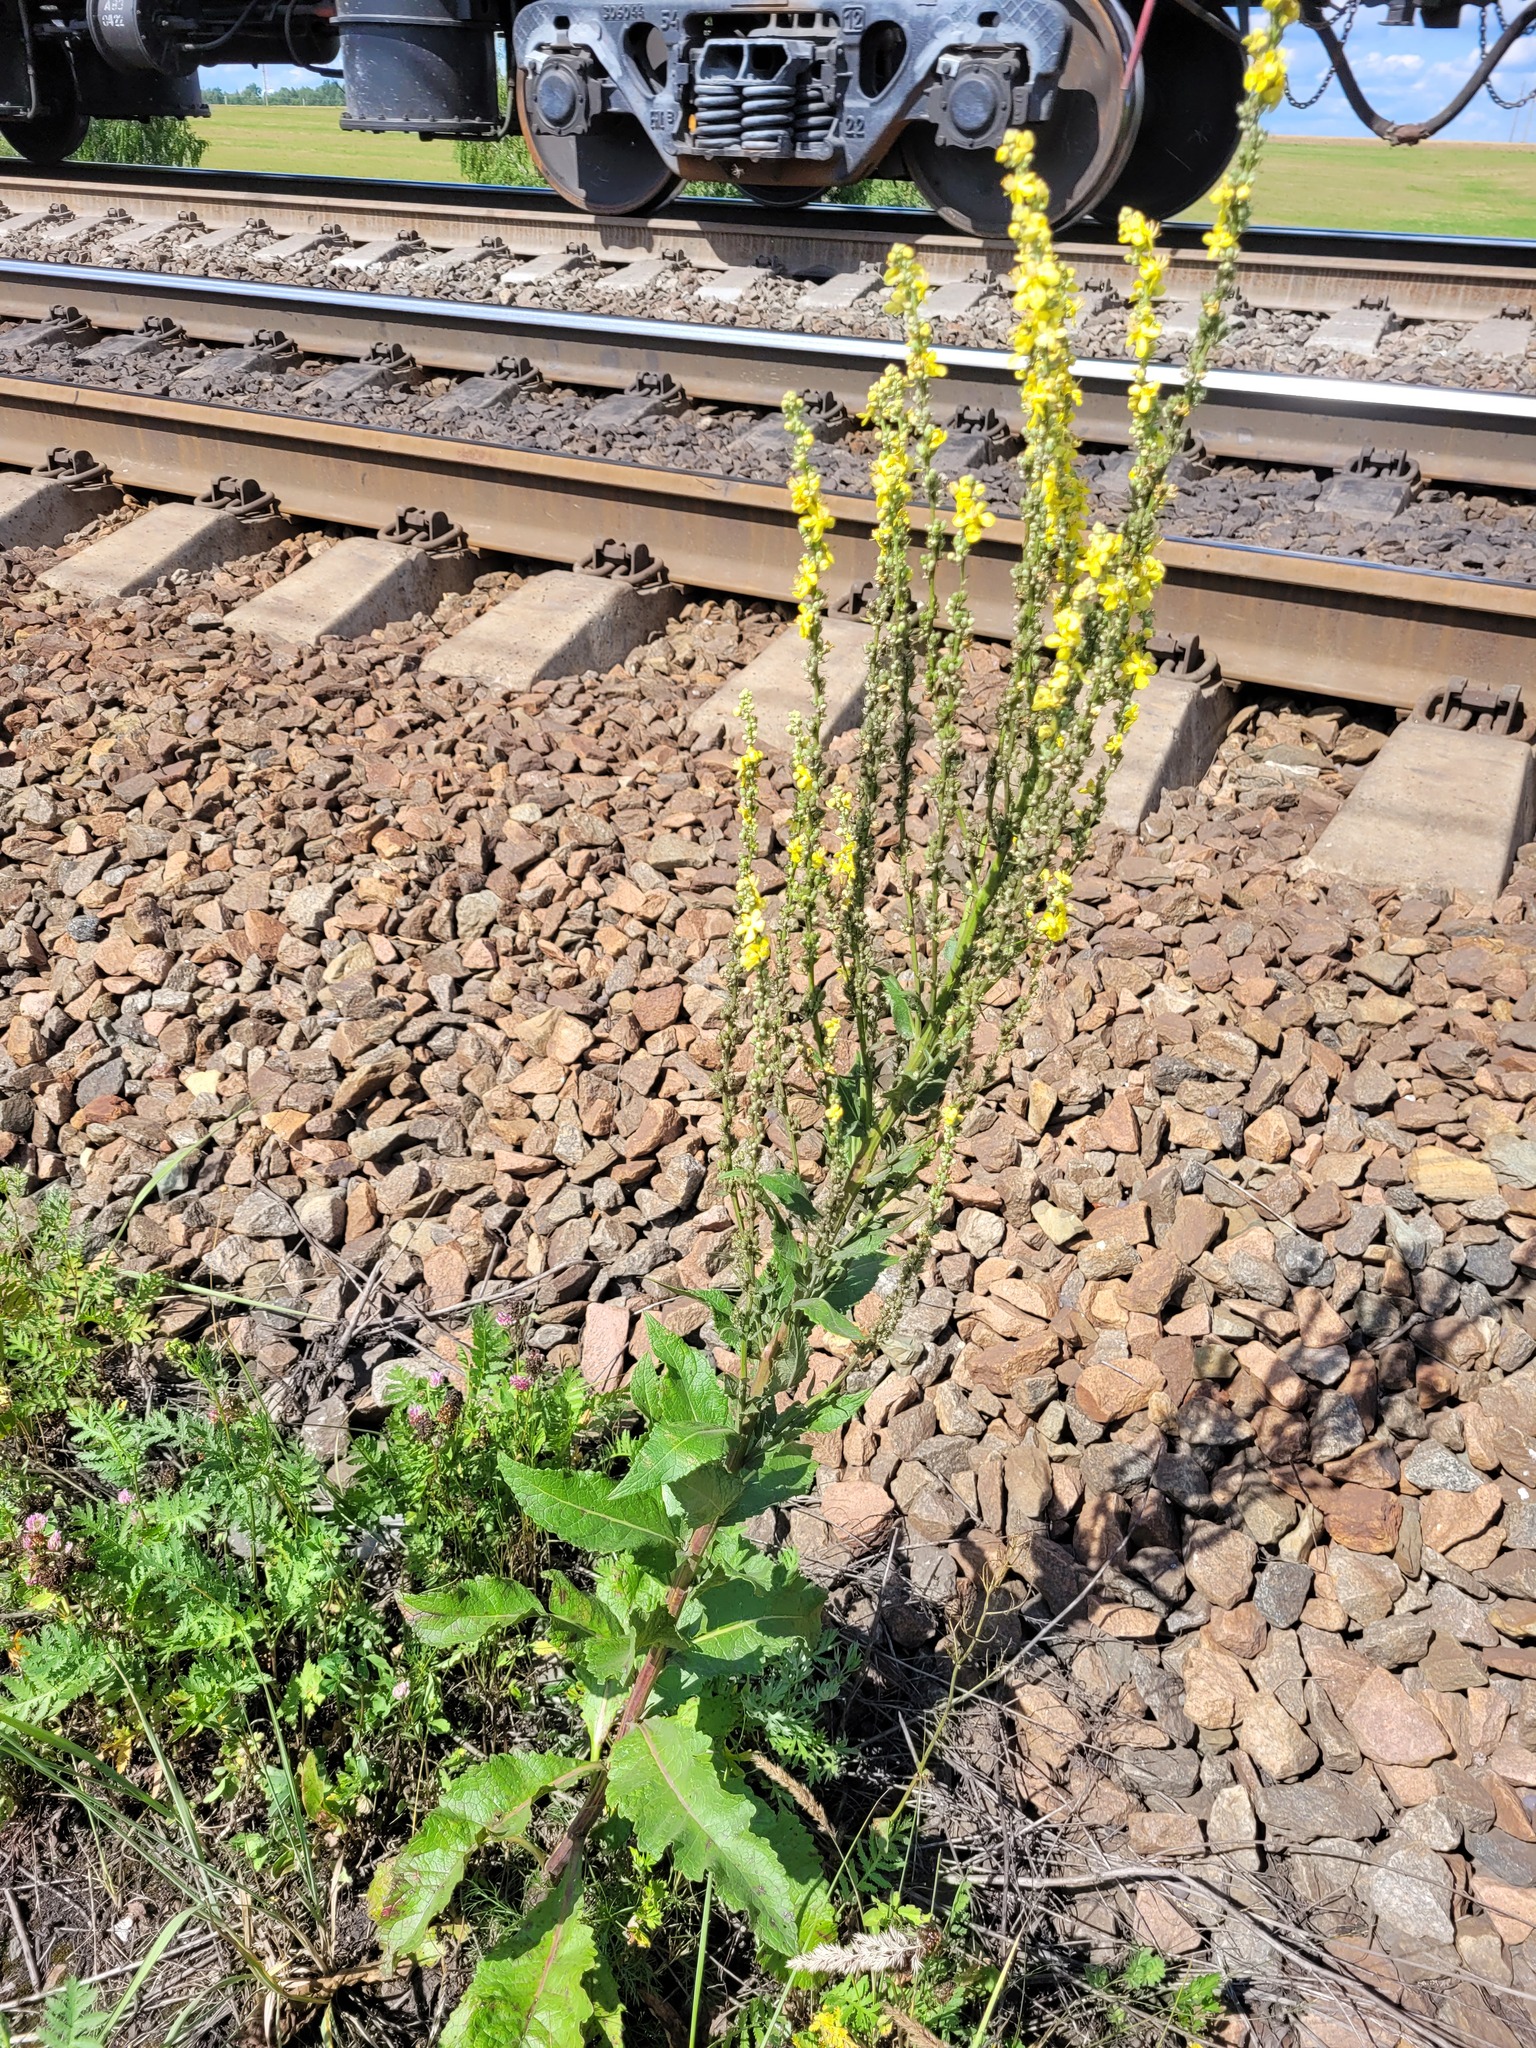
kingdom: Plantae
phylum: Tracheophyta
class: Magnoliopsida
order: Lamiales
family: Scrophulariaceae
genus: Verbascum
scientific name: Verbascum lychnitis
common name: White mullein
